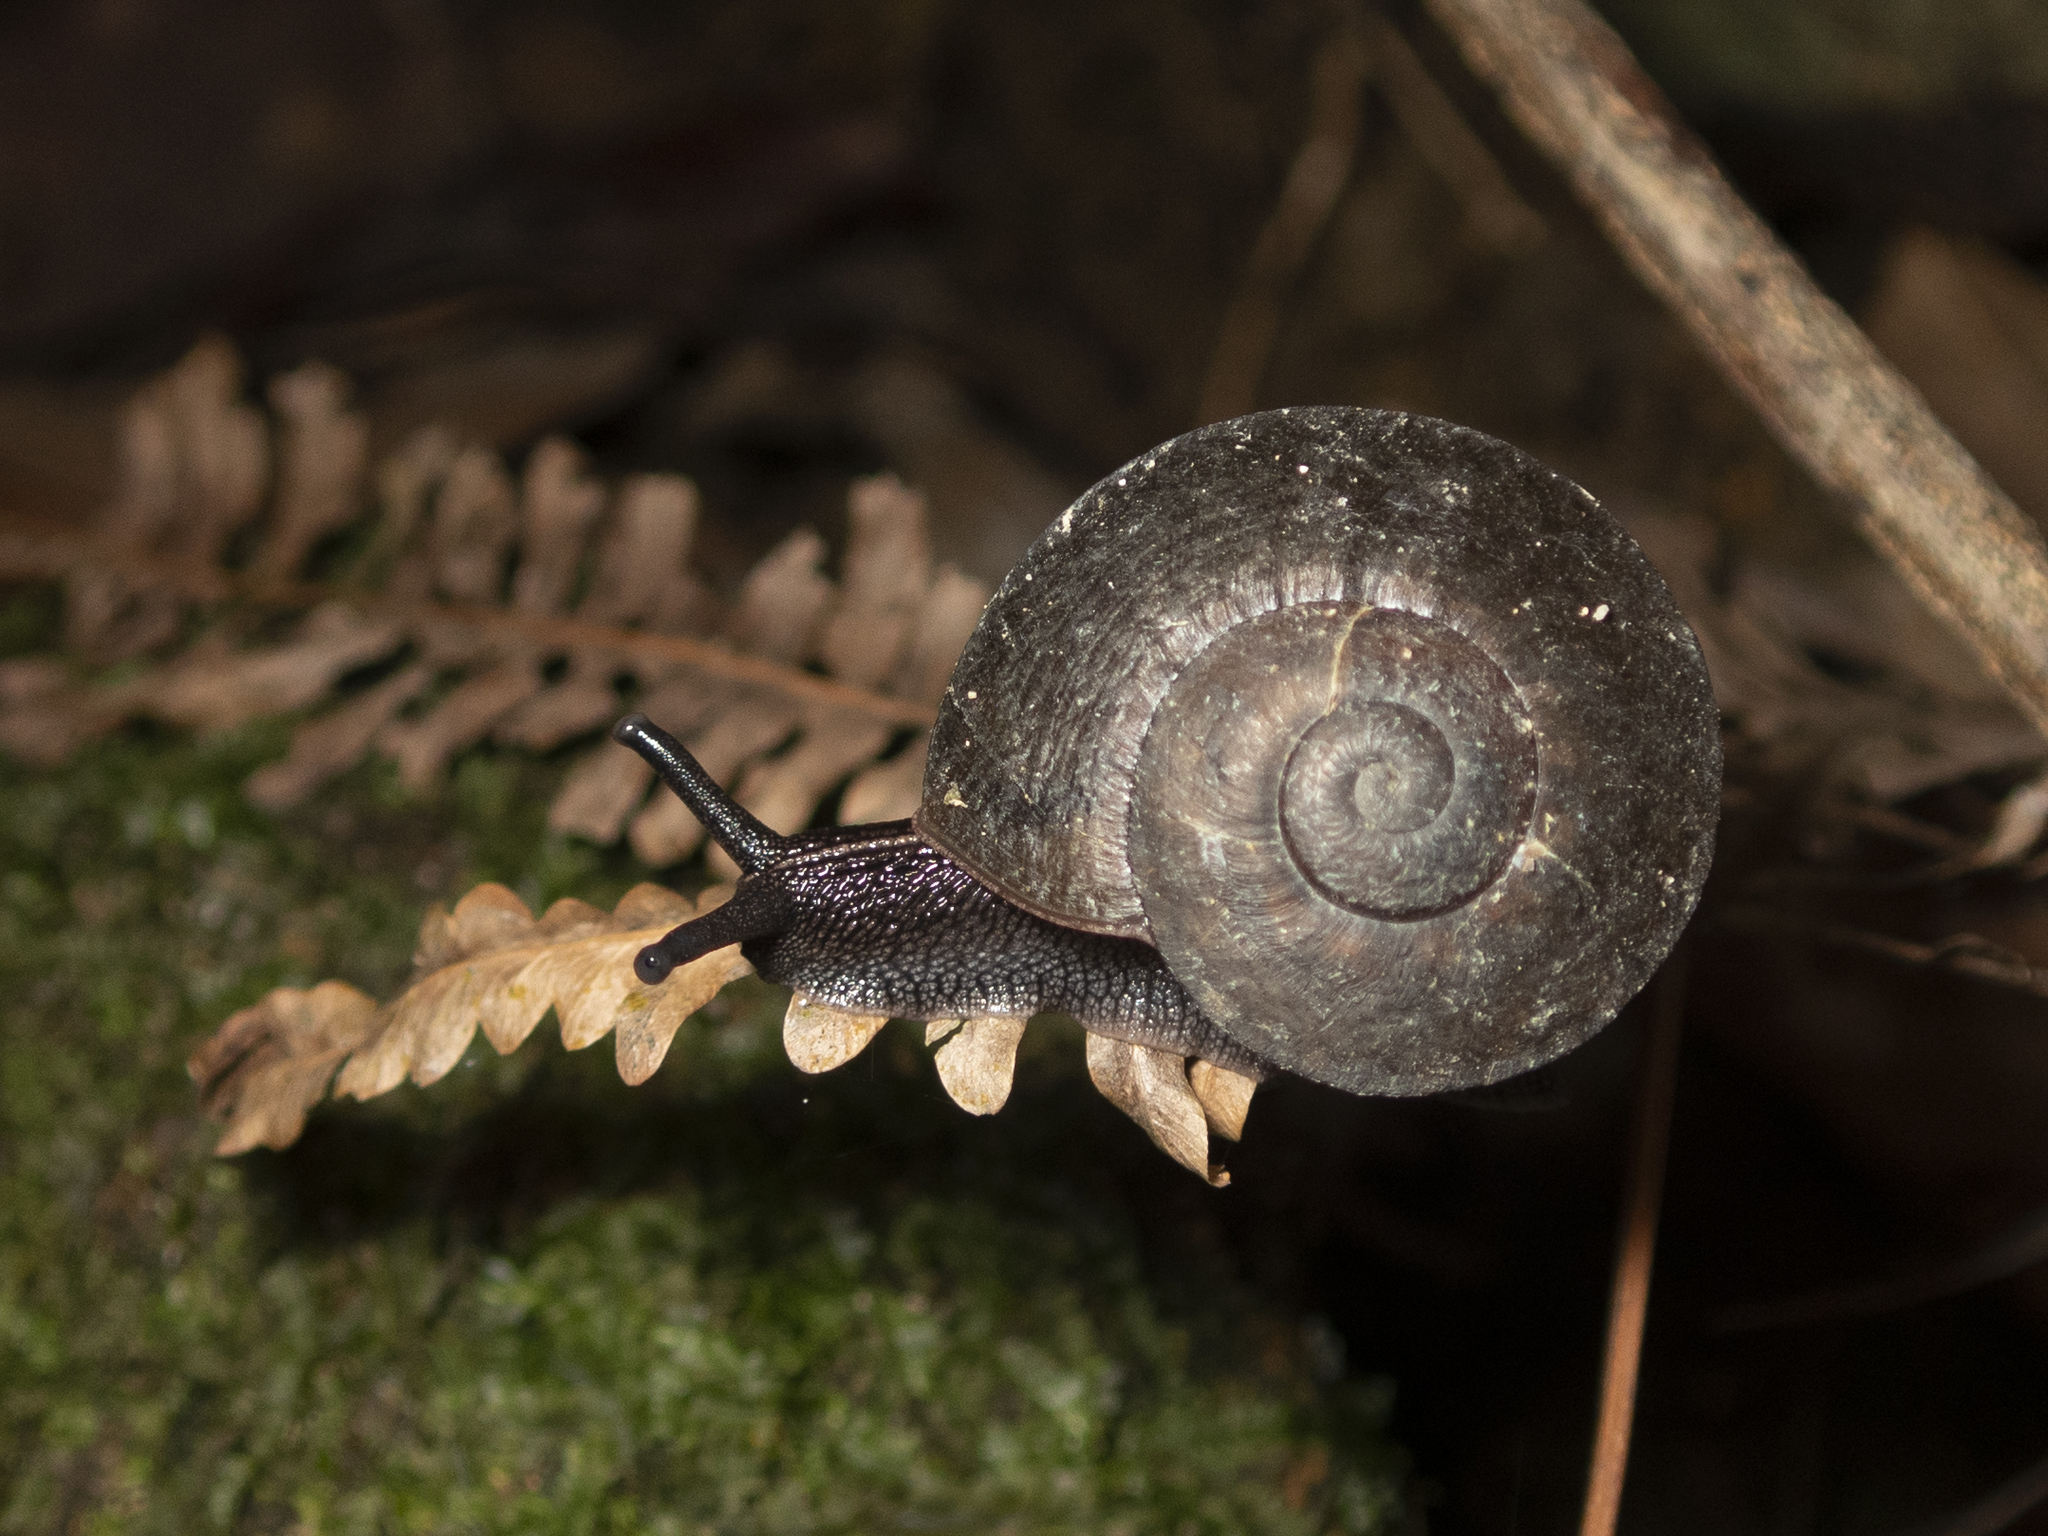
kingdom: Animalia
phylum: Mollusca
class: Gastropoda
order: Stylommatophora
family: Camaenidae
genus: Camaena
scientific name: Camaena cicatricosa
